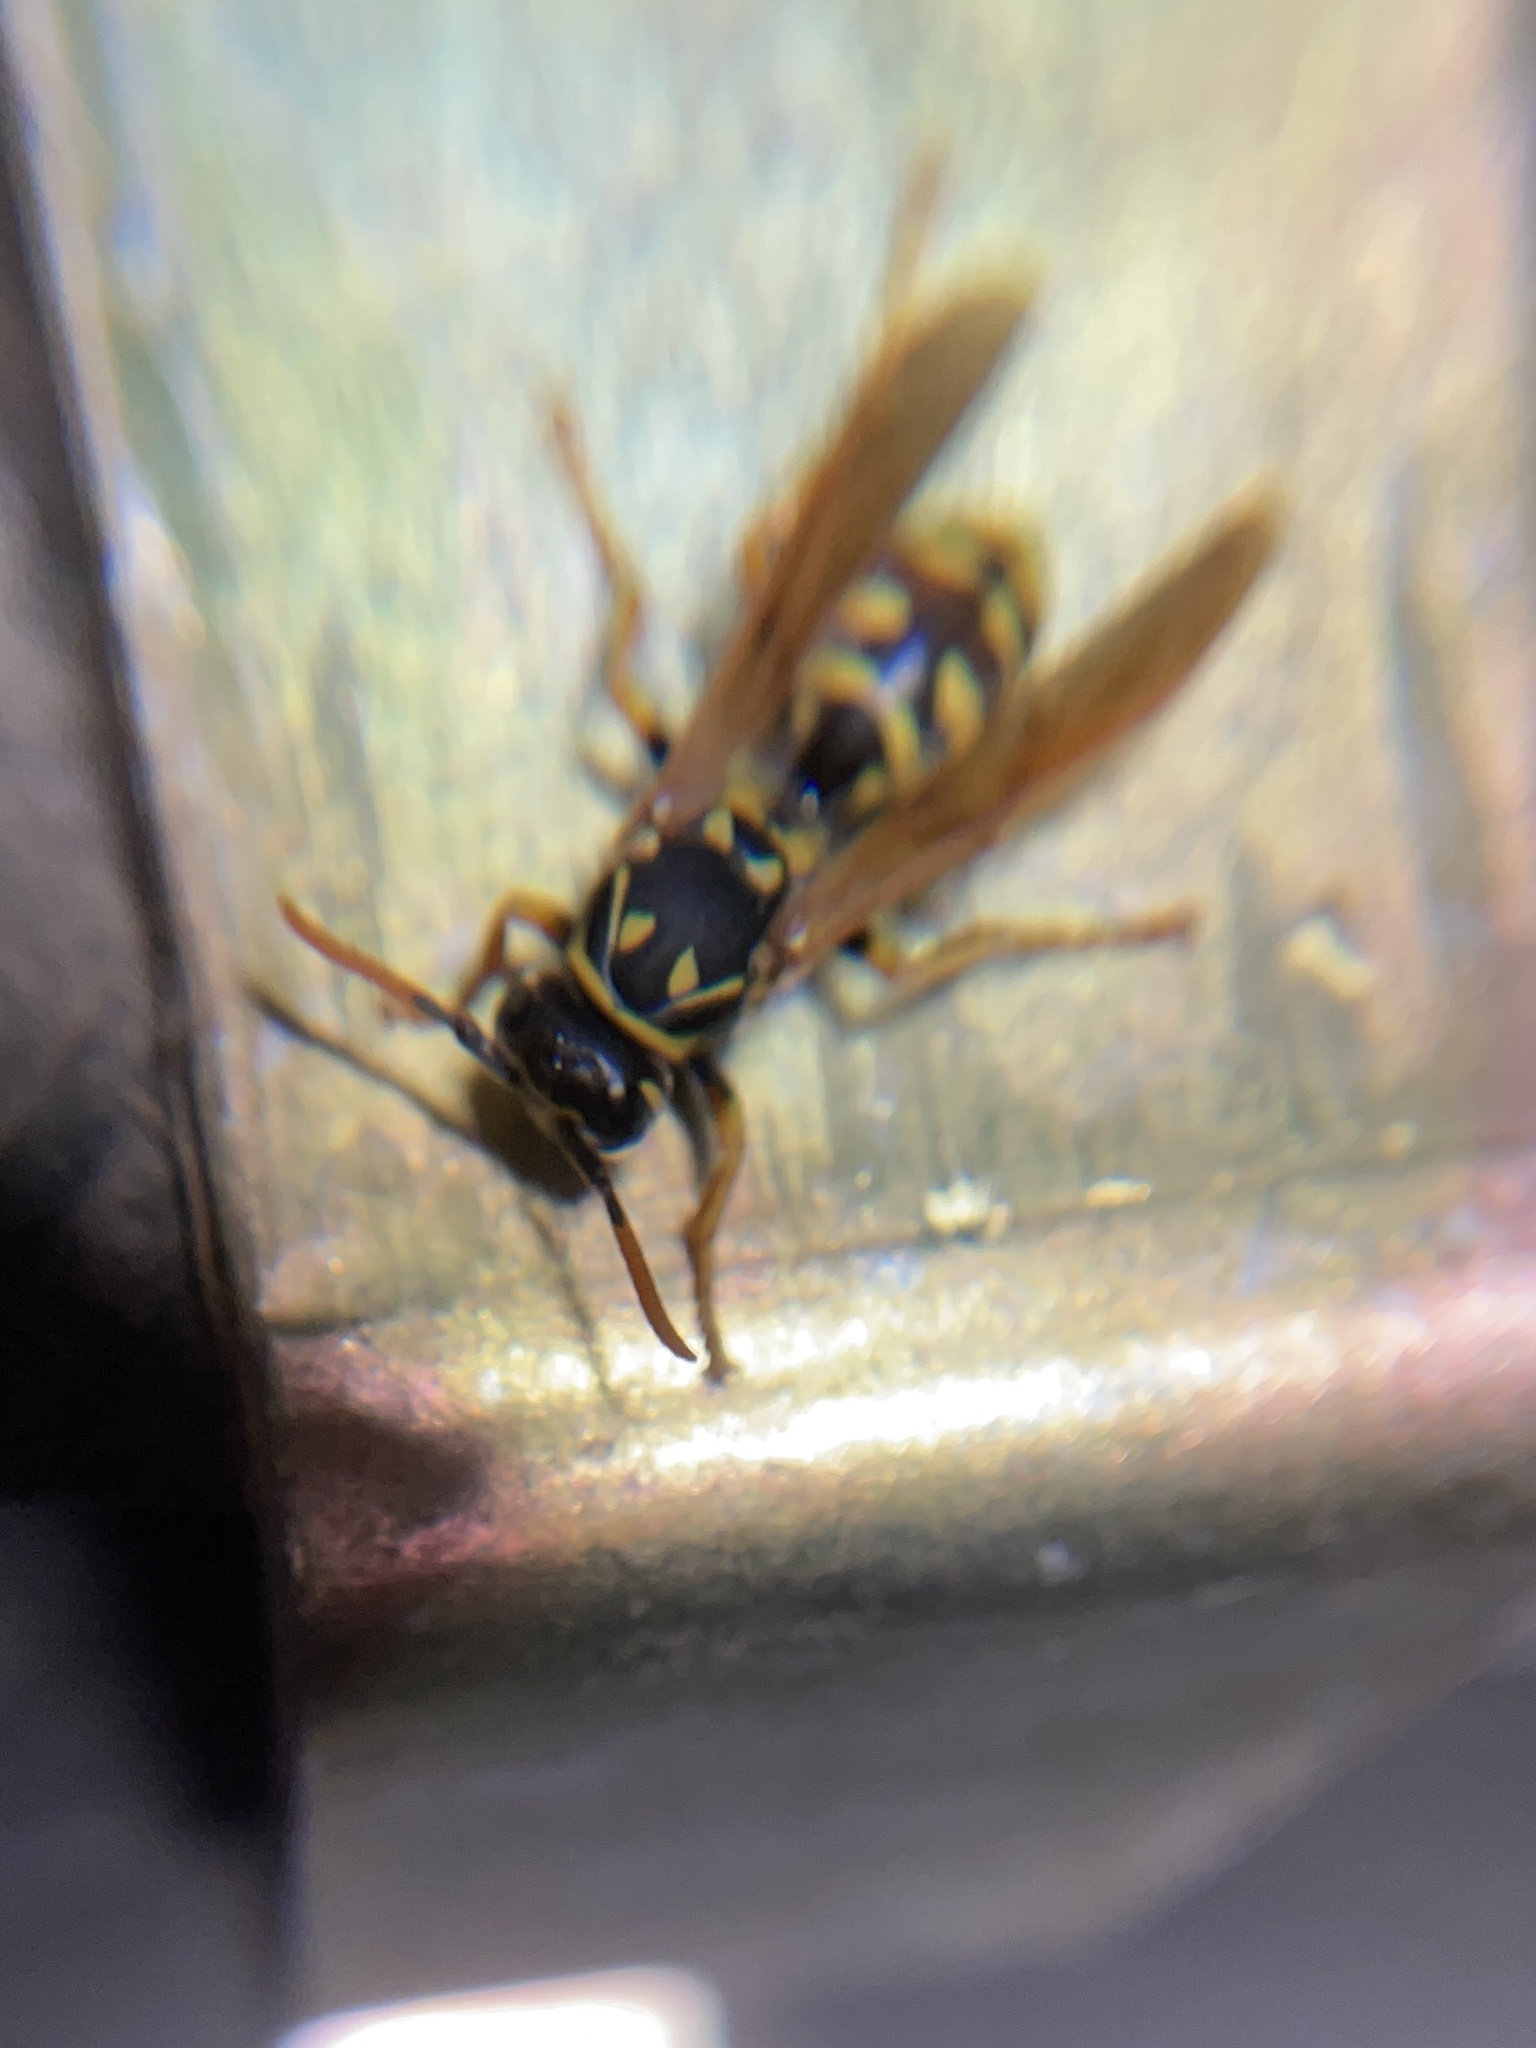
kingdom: Animalia
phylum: Arthropoda
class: Insecta
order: Hymenoptera
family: Eumenidae
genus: Polistes
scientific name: Polistes dominula
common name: Paper wasp
